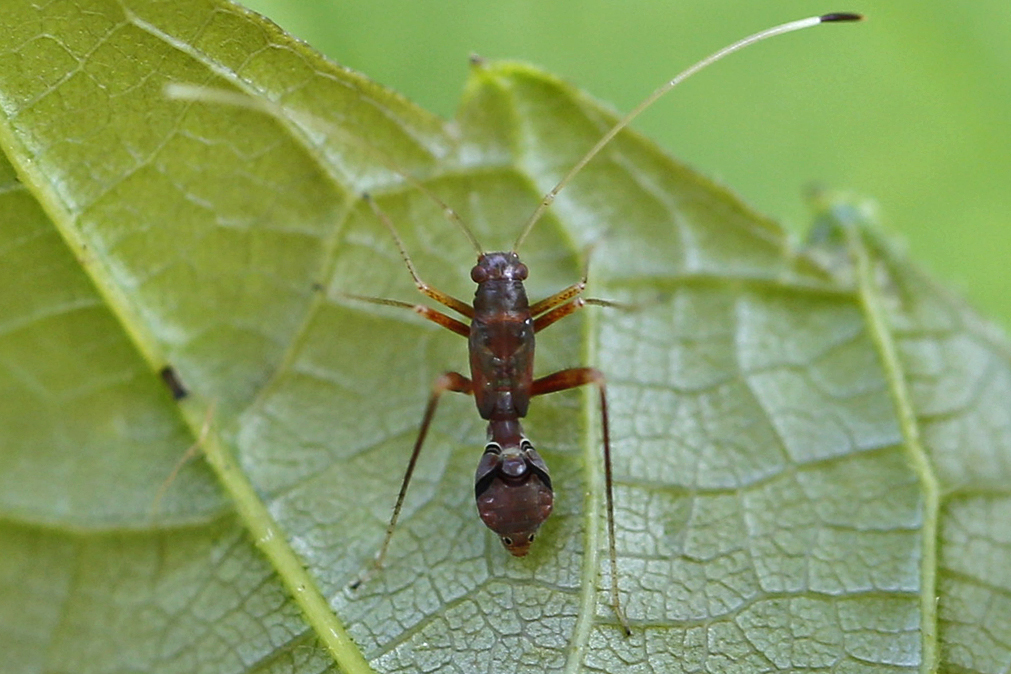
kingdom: Animalia
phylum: Arthropoda
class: Insecta
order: Hemiptera
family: Miridae
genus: Paraxenetus
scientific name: Paraxenetus guttulatus
